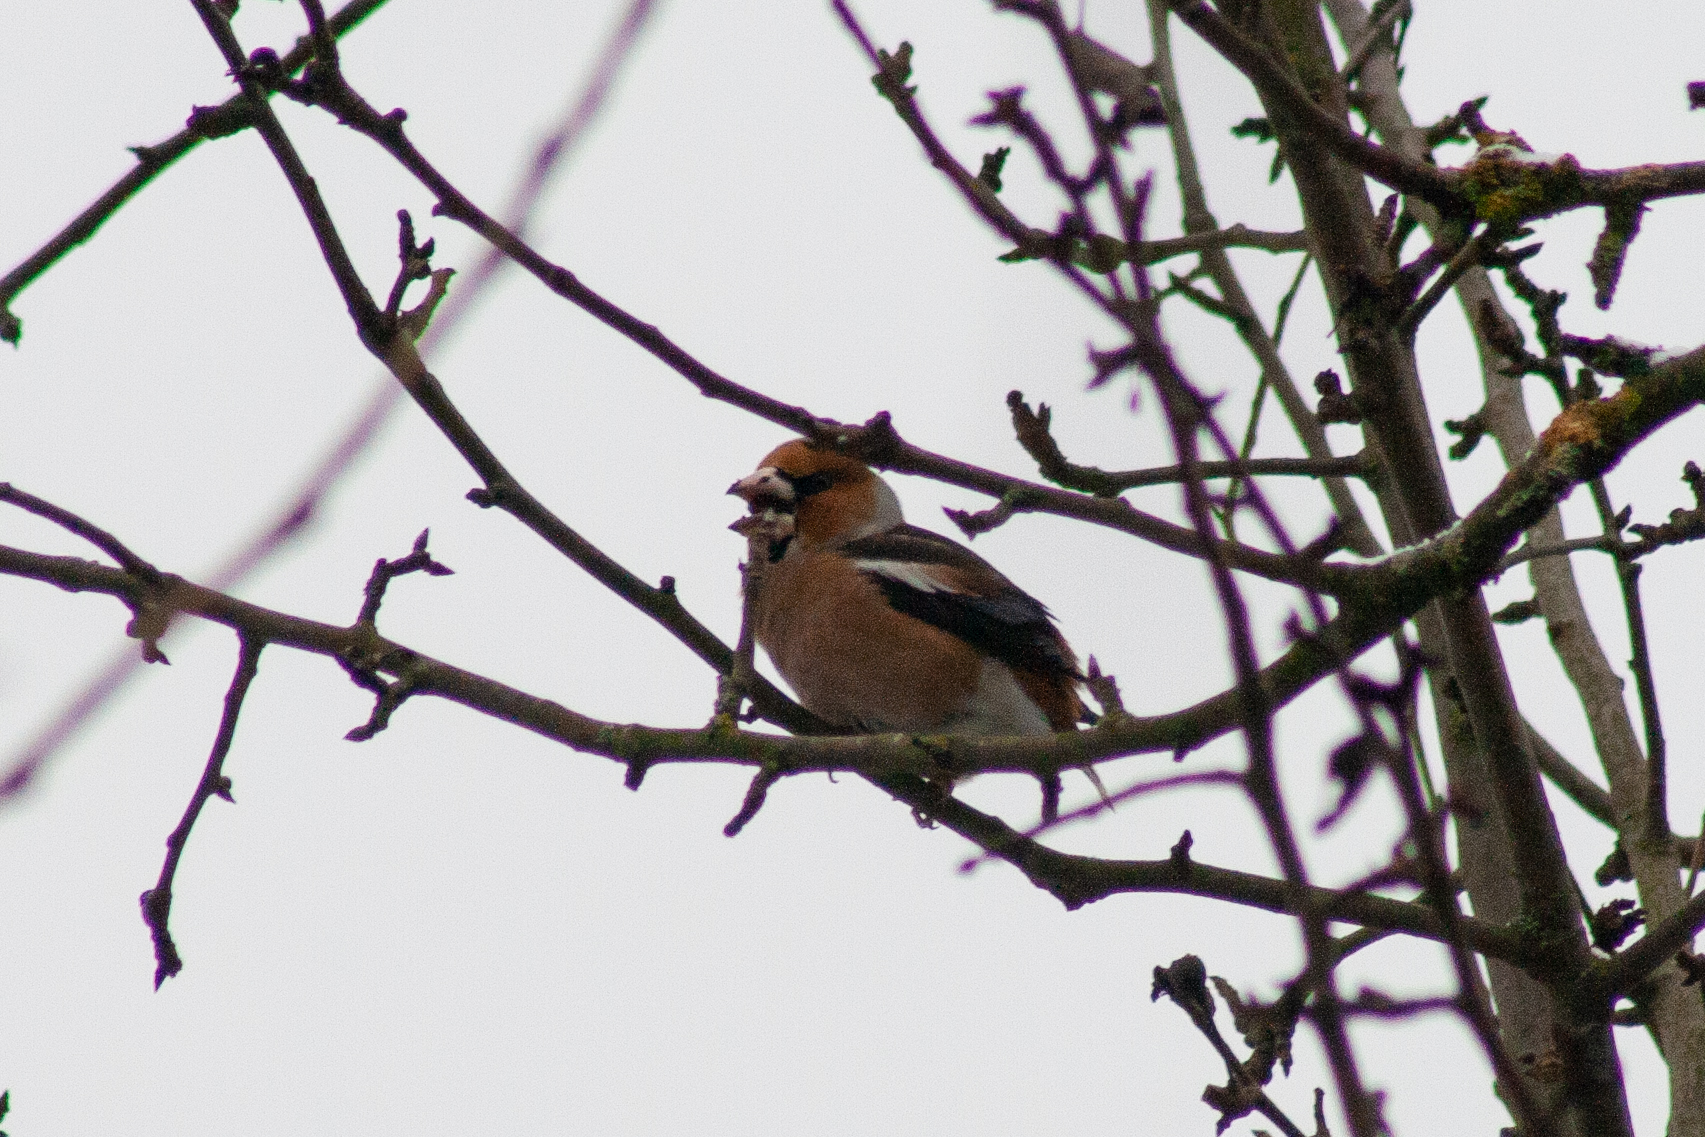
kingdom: Animalia
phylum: Chordata
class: Aves
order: Passeriformes
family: Fringillidae
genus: Coccothraustes
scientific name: Coccothraustes coccothraustes
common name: Hawfinch
